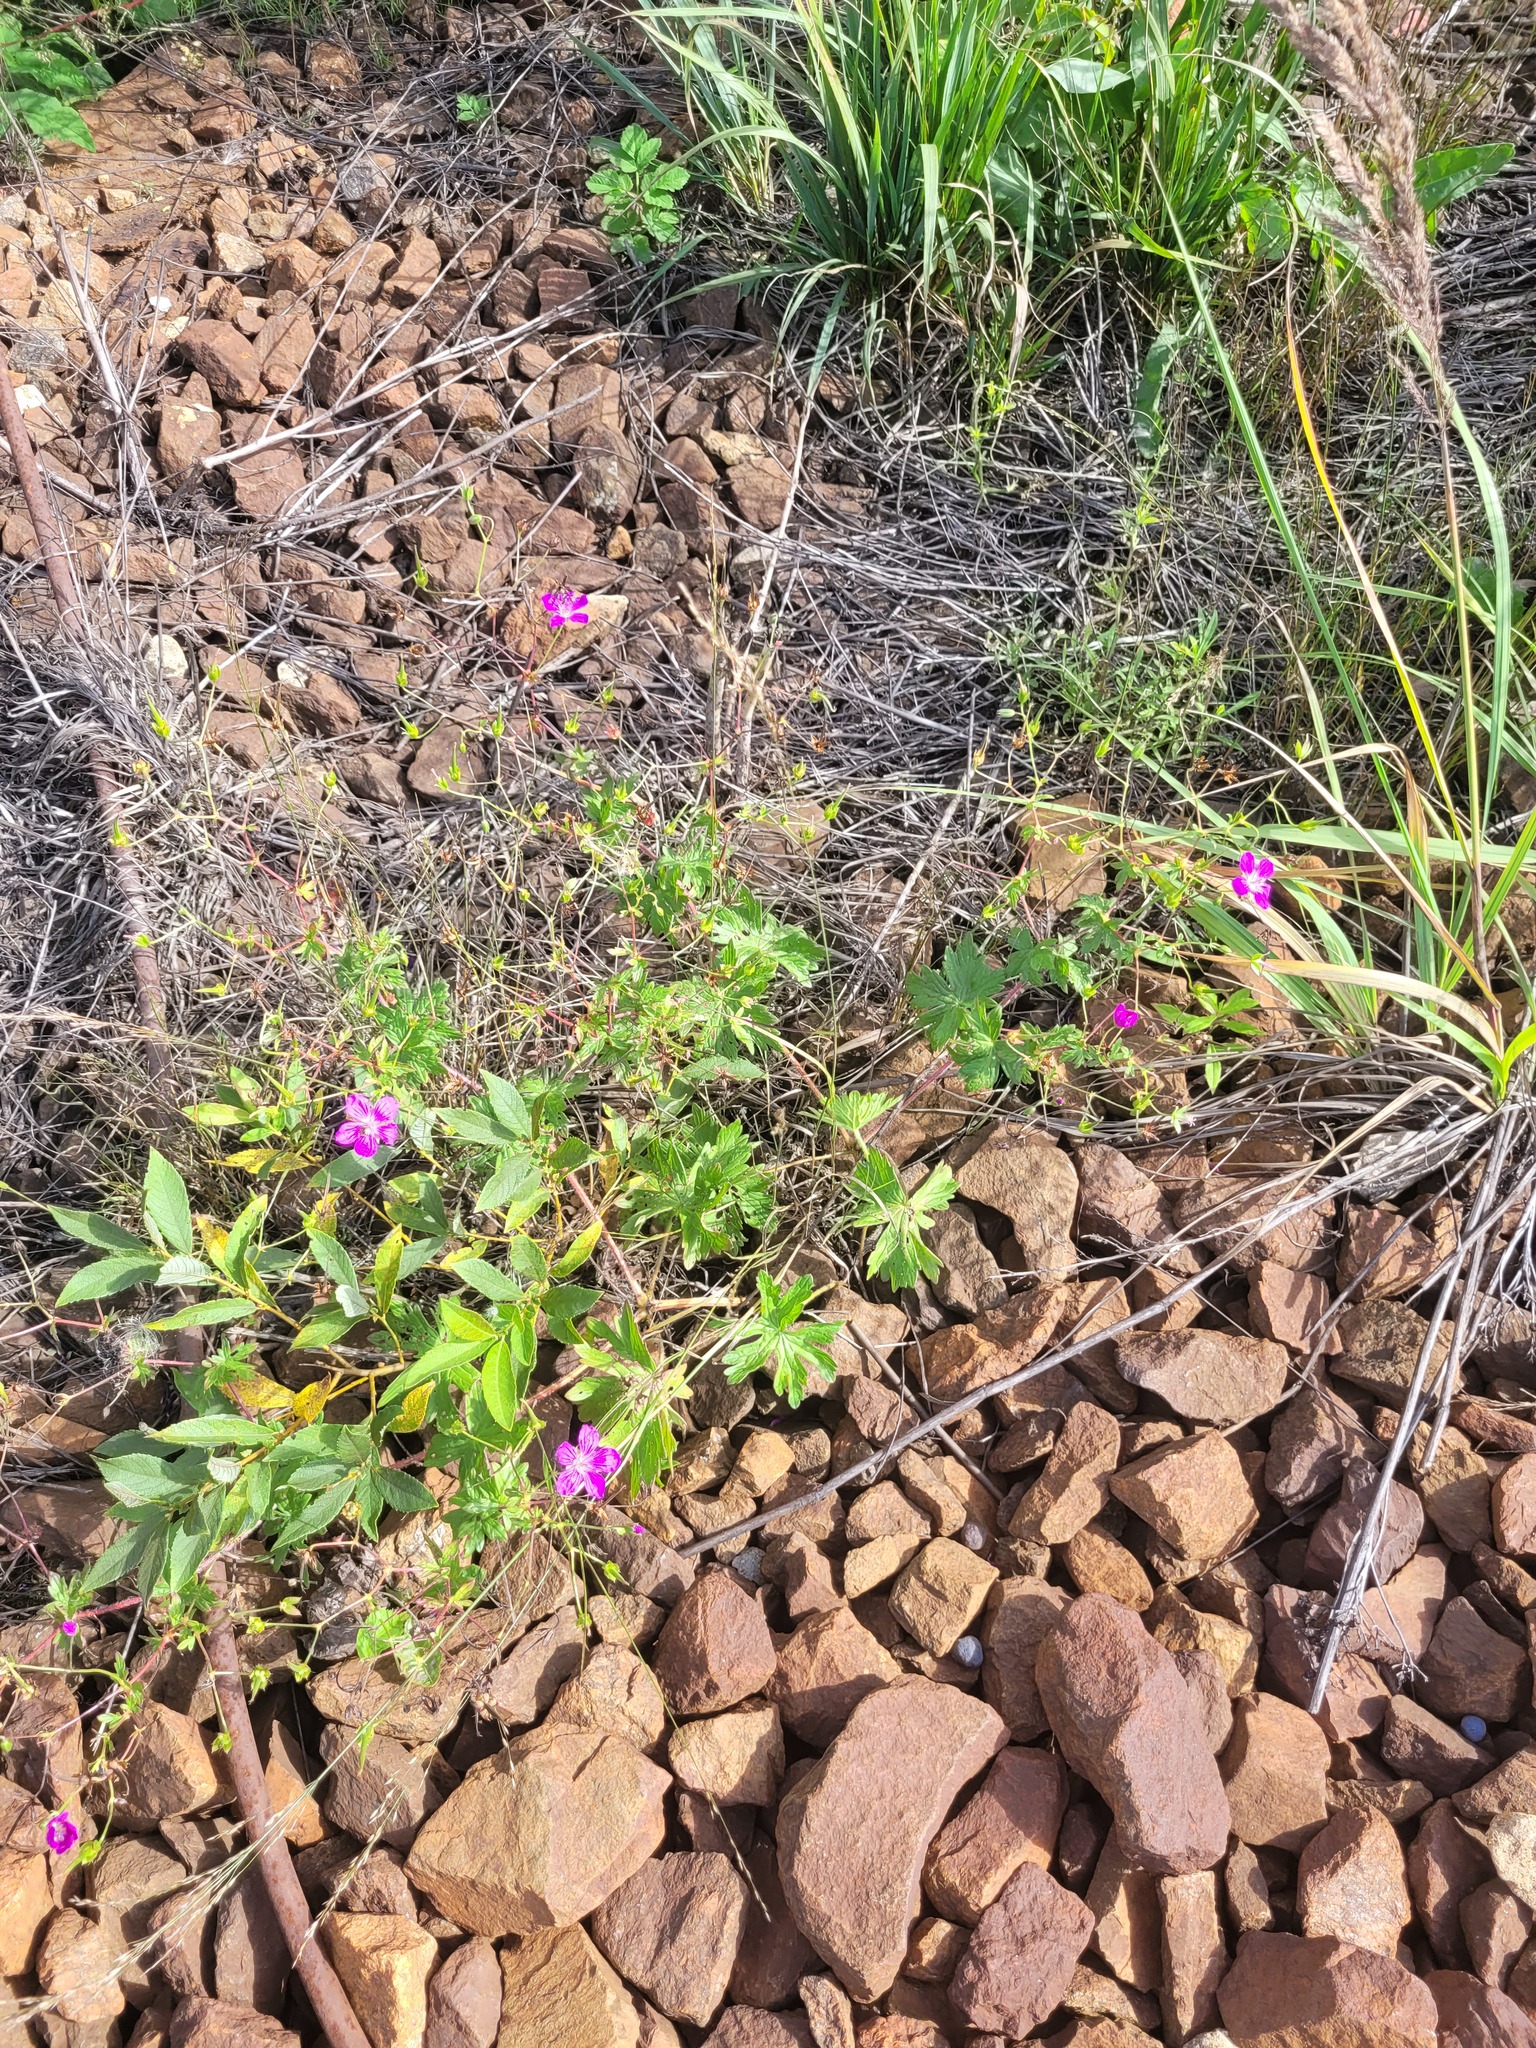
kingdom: Plantae
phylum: Tracheophyta
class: Magnoliopsida
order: Geraniales
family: Geraniaceae
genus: Geranium
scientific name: Geranium palustre
